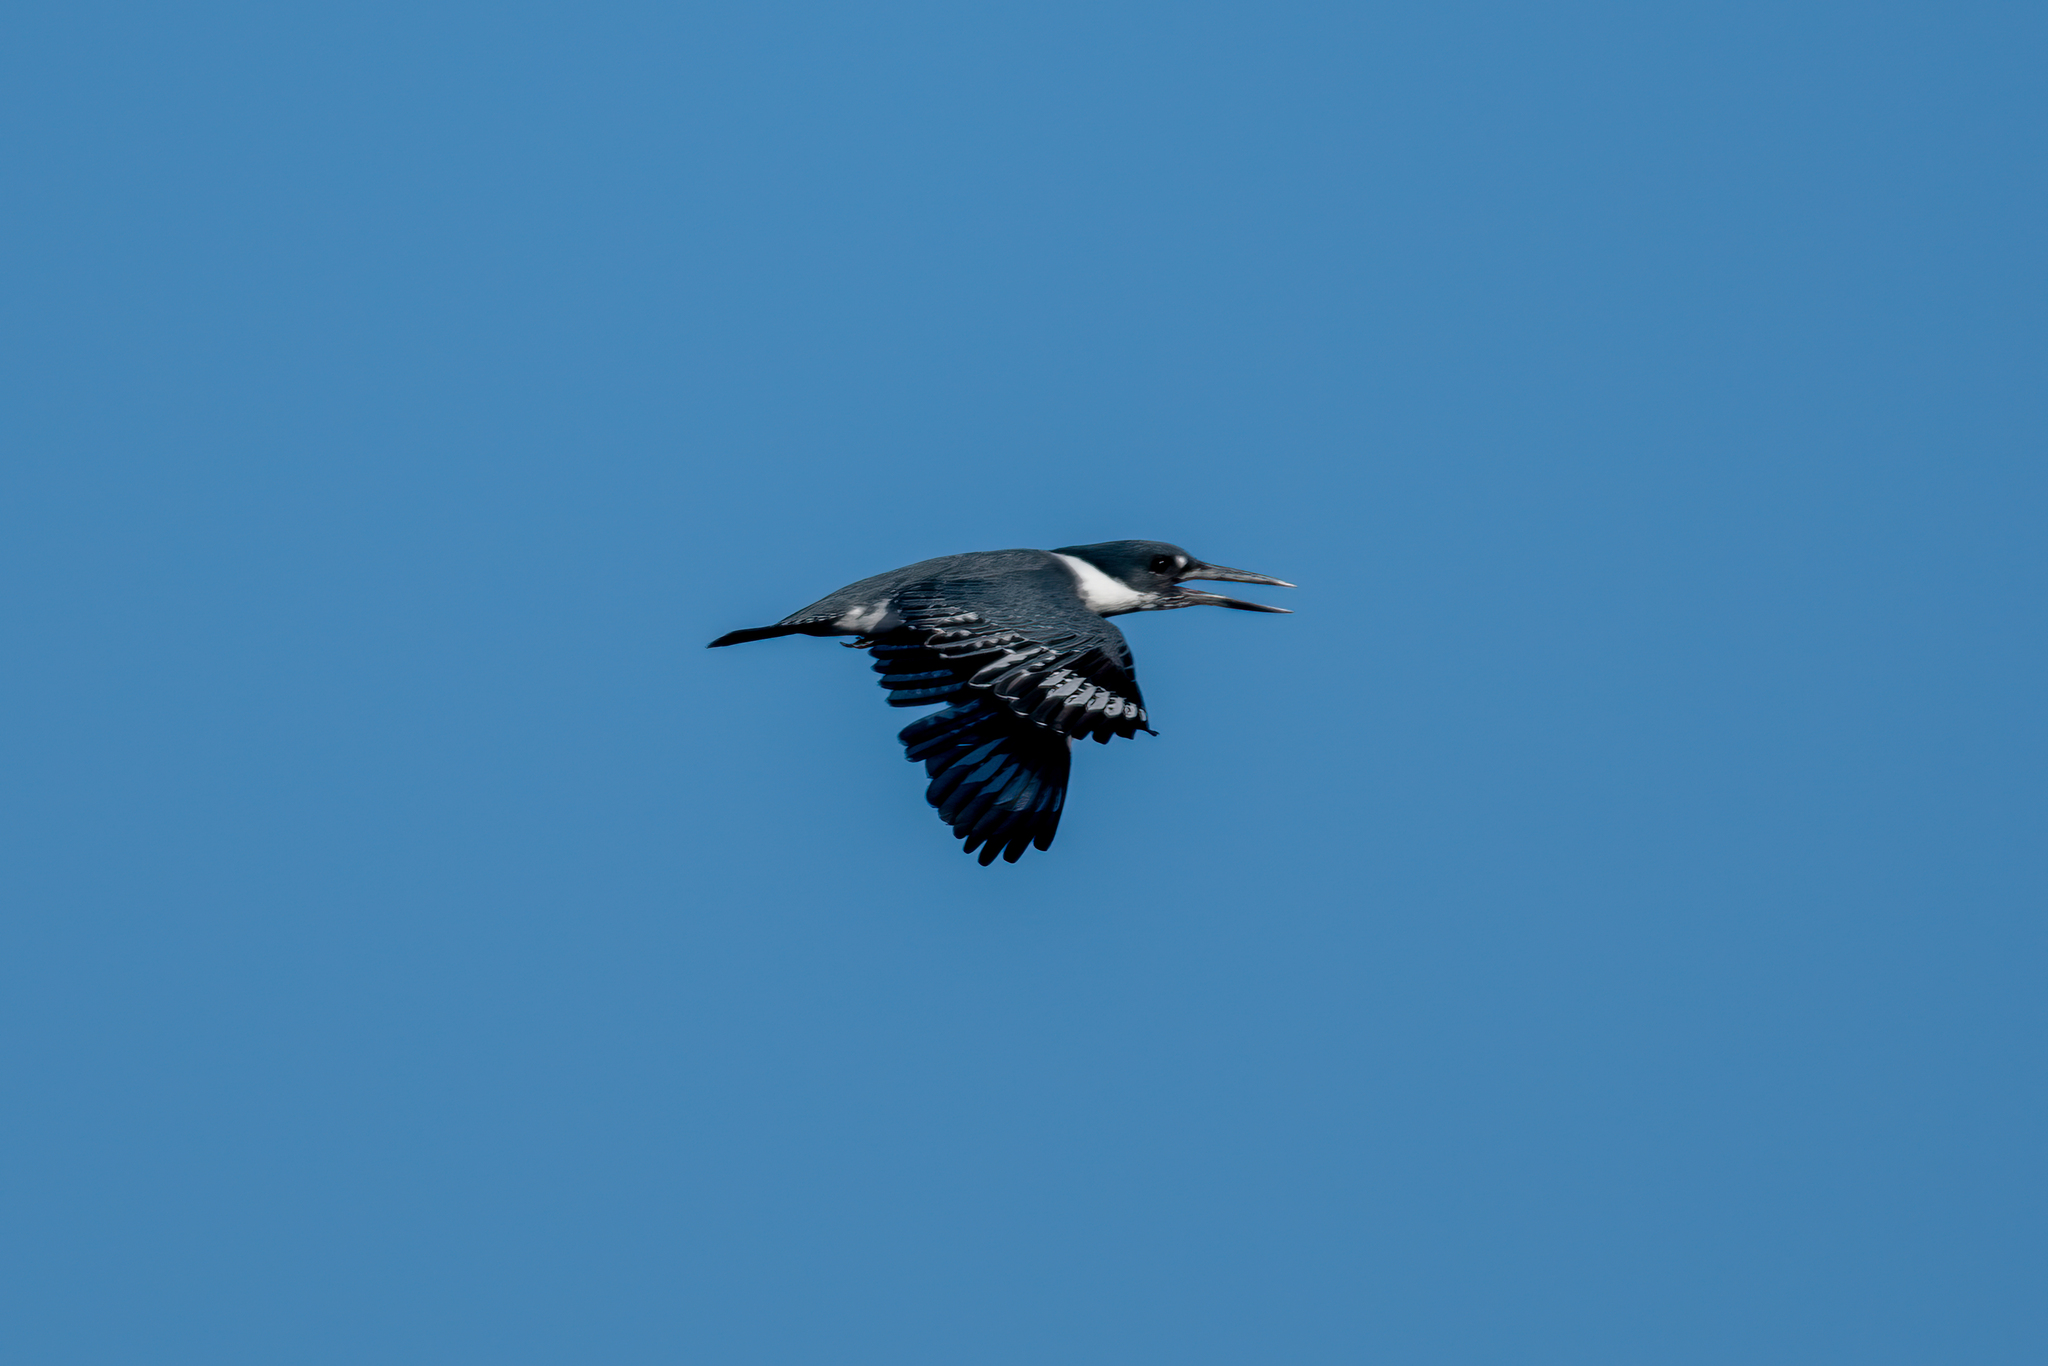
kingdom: Animalia
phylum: Chordata
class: Aves
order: Coraciiformes
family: Alcedinidae
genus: Megaceryle
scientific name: Megaceryle alcyon
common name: Belted kingfisher
